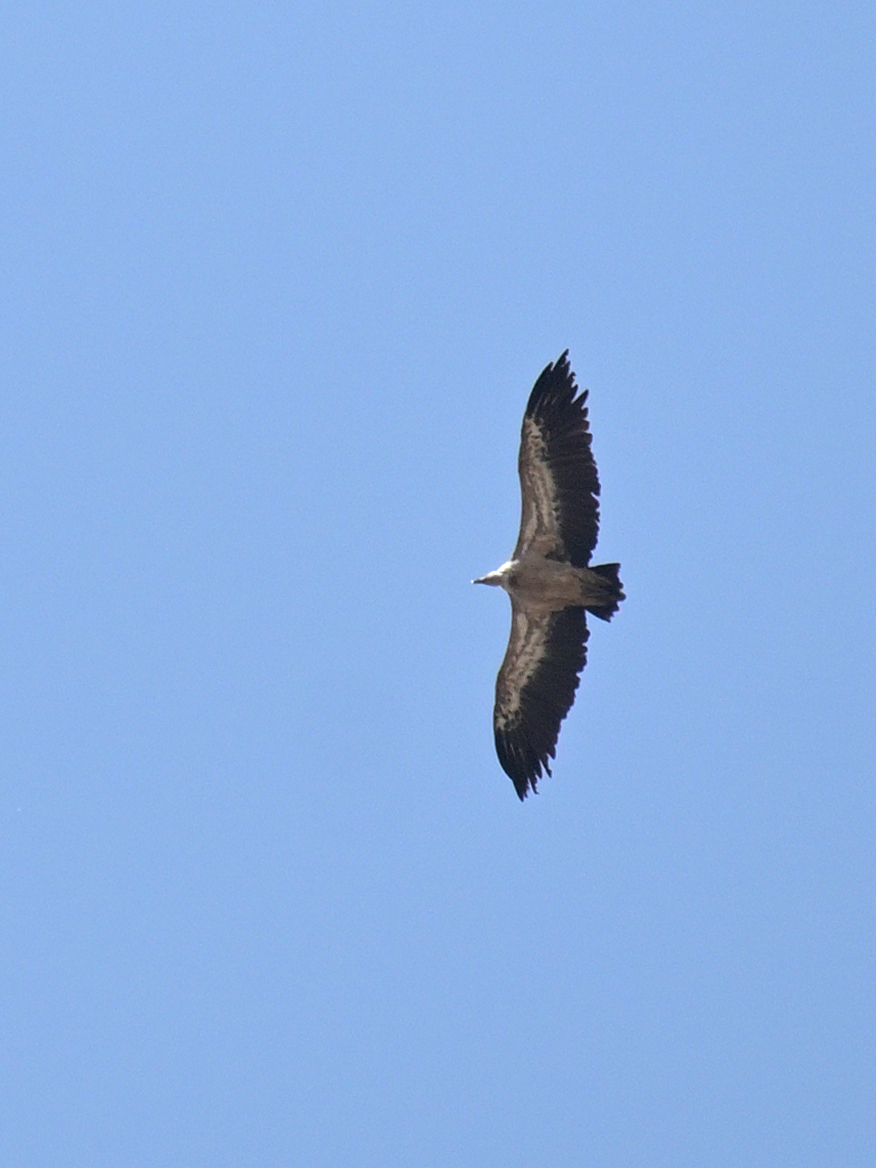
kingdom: Animalia
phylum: Chordata
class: Aves
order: Accipitriformes
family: Accipitridae
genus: Gyps
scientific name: Gyps fulvus
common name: Griffon vulture
